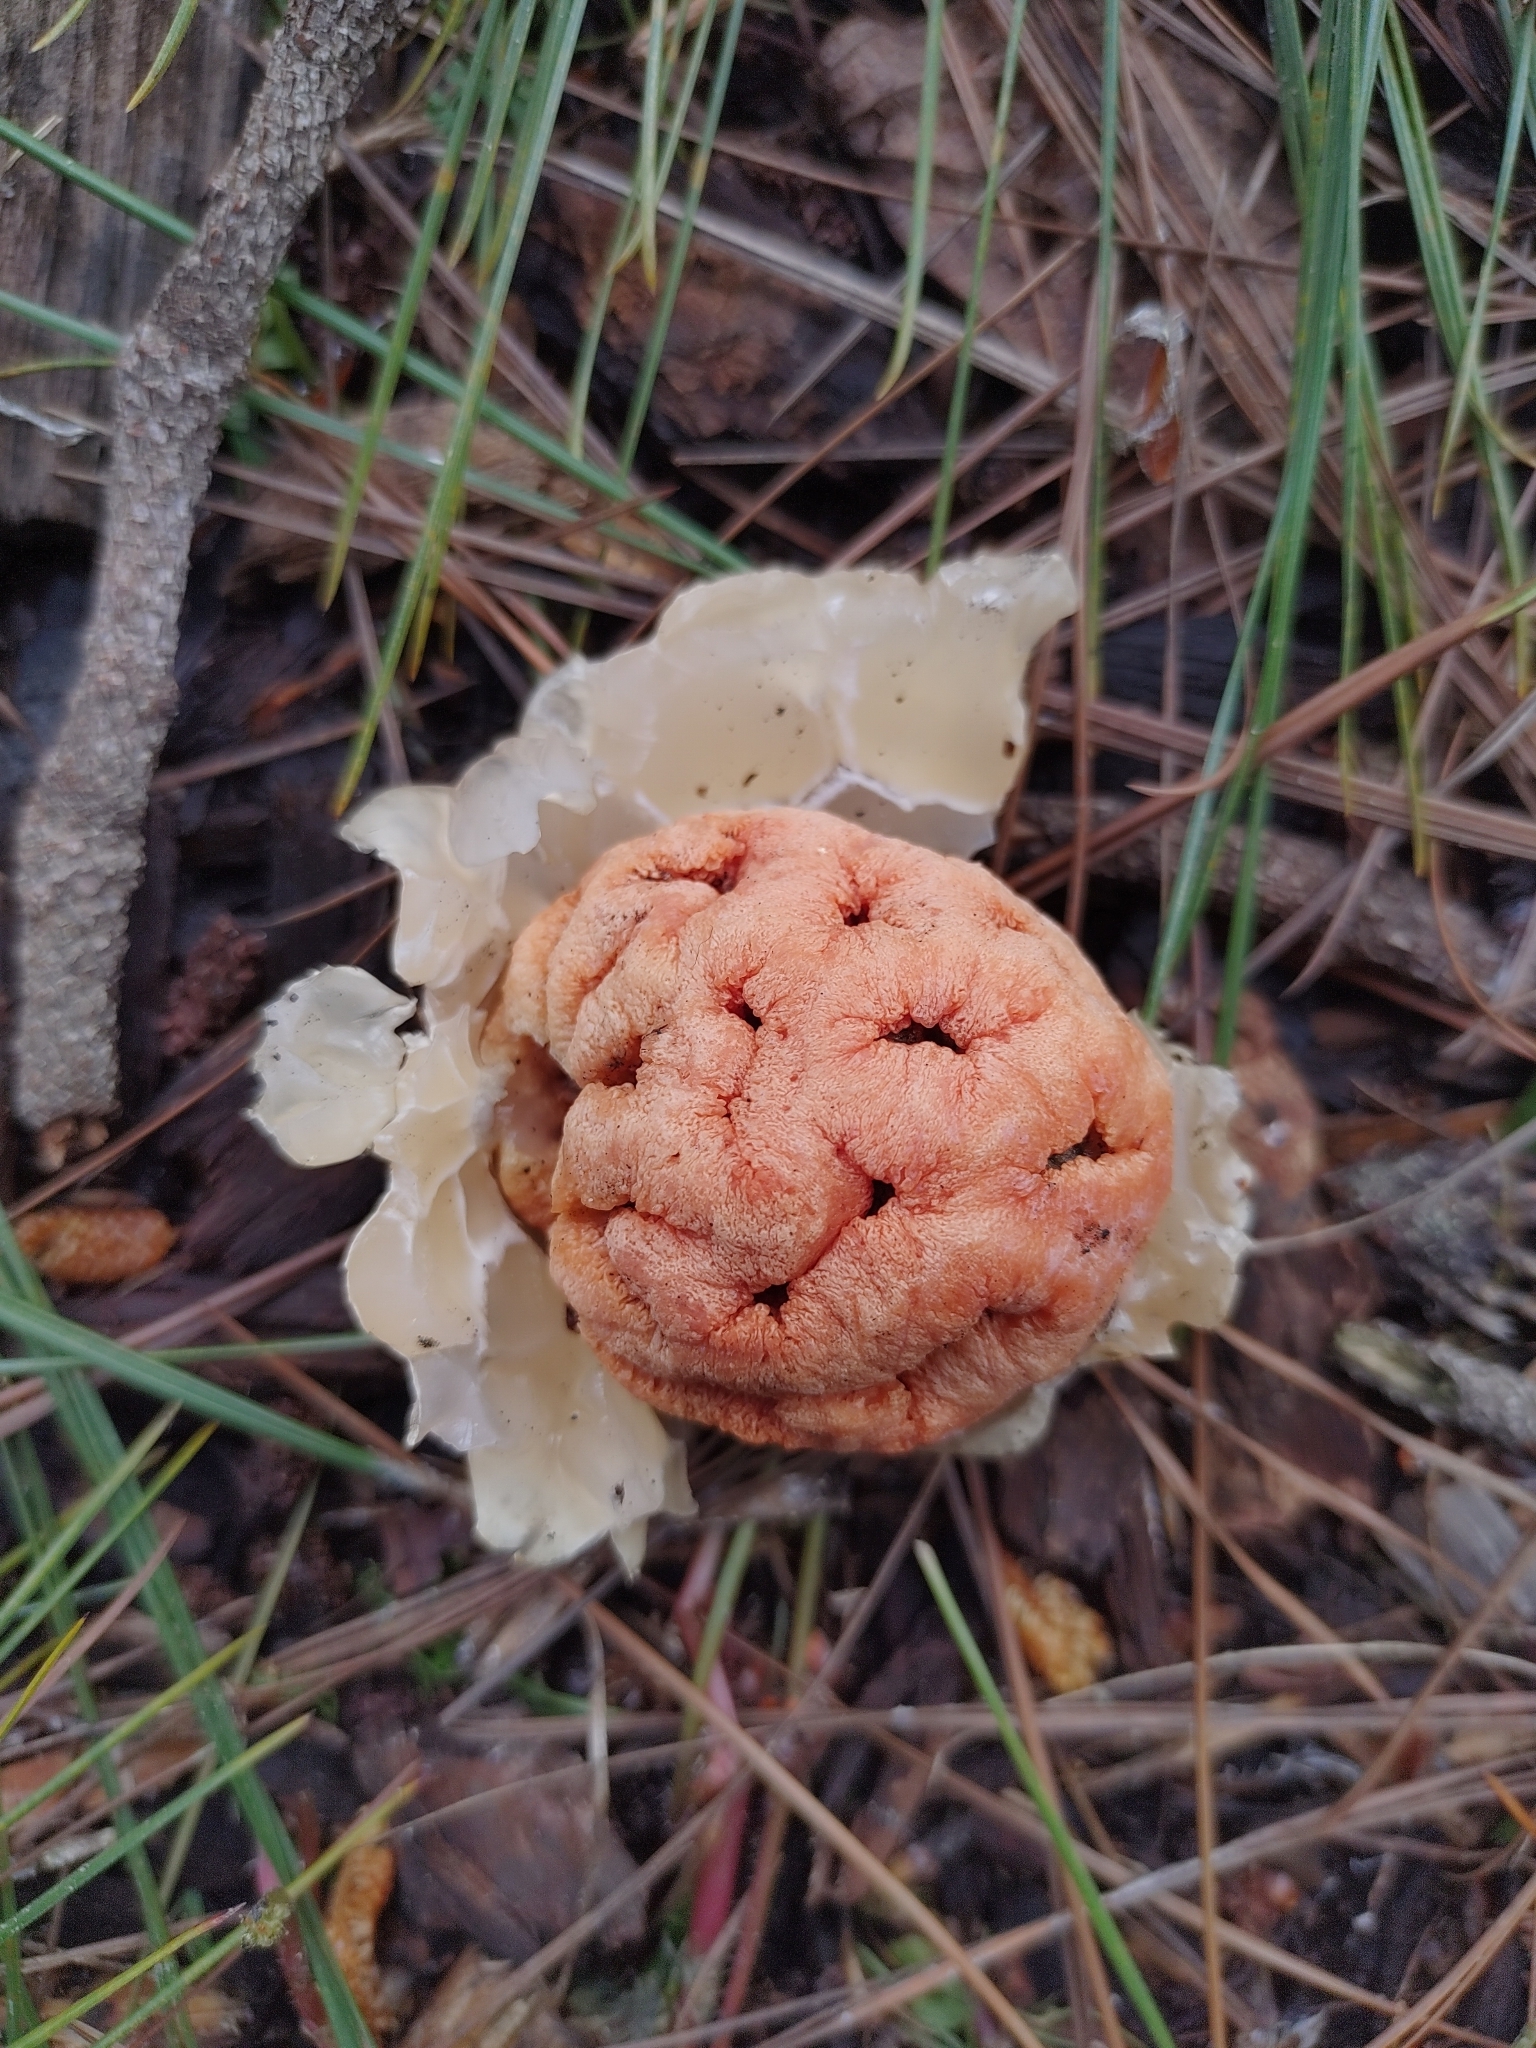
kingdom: Fungi
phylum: Basidiomycota
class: Agaricomycetes
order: Phallales
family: Phallaceae
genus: Clathrus
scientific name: Clathrus ruber
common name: Red cage
